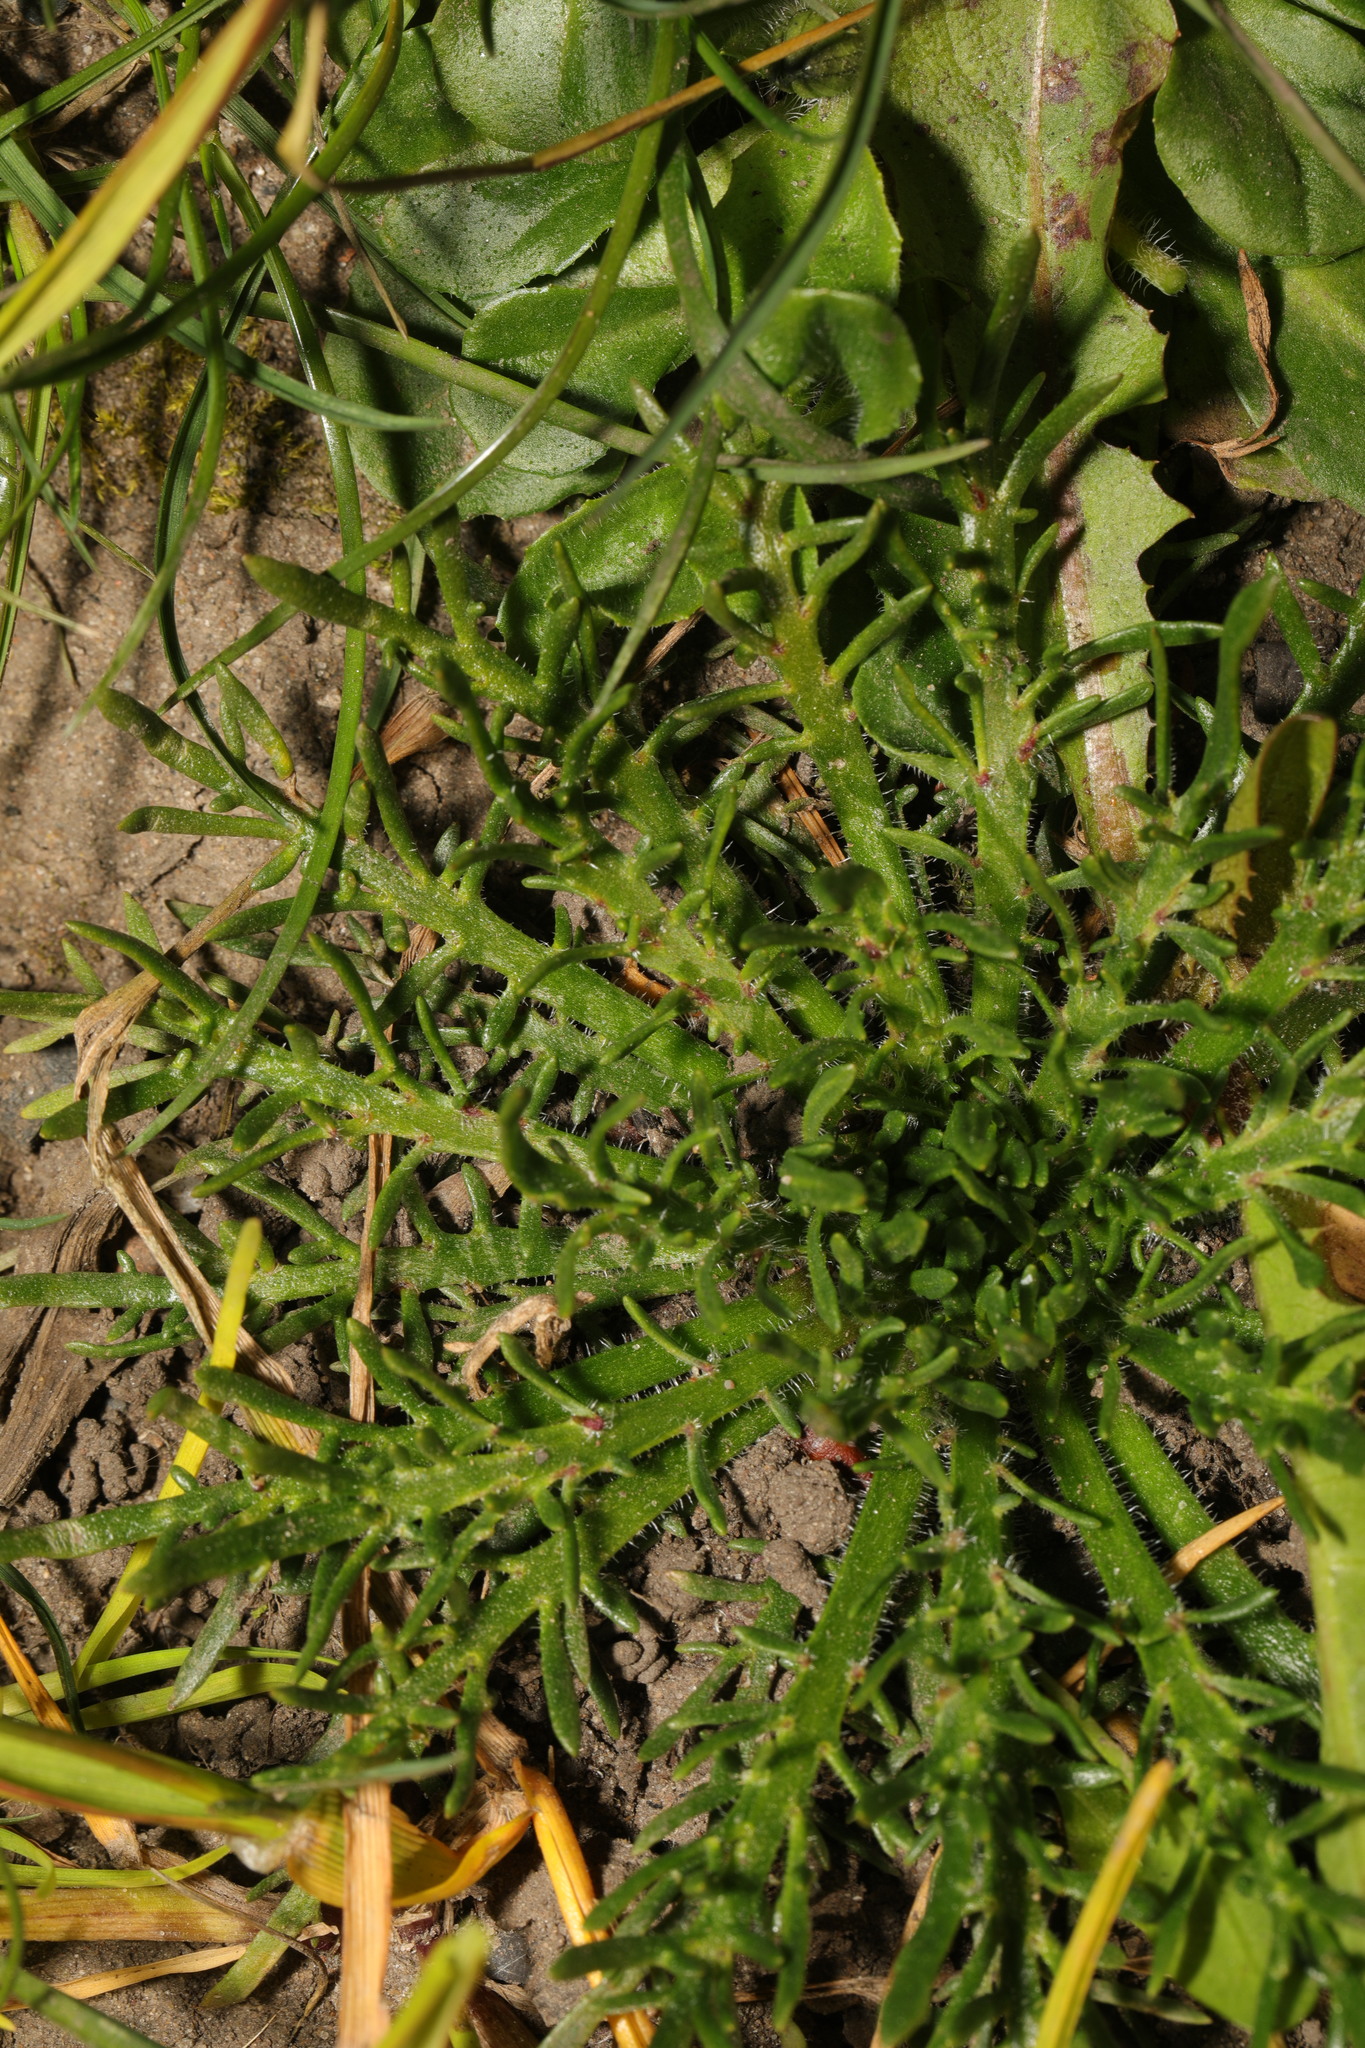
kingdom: Plantae
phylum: Tracheophyta
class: Magnoliopsida
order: Lamiales
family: Plantaginaceae
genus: Plantago
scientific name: Plantago coronopus
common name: Buck's-horn plantain
